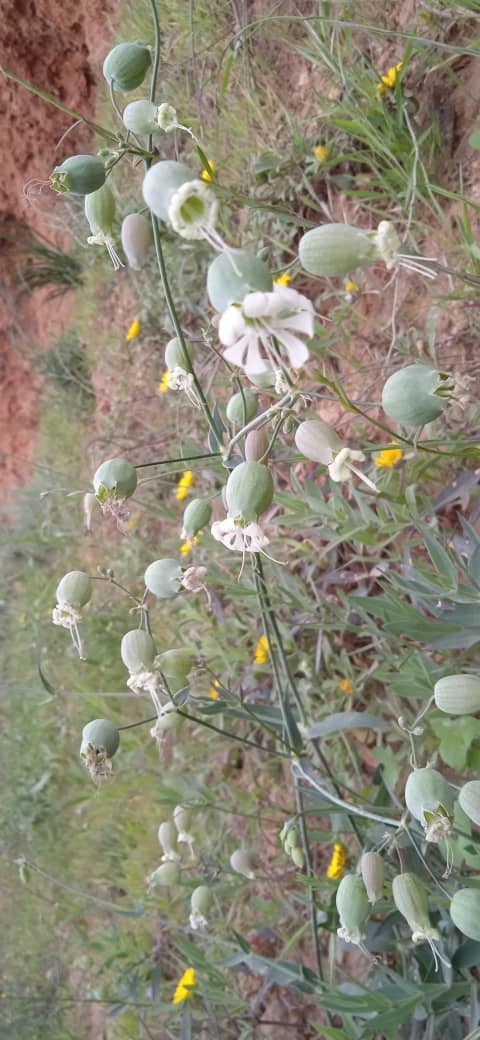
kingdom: Plantae
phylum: Tracheophyta
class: Magnoliopsida
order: Caryophyllales
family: Caryophyllaceae
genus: Silene
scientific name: Silene vulgaris
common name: Bladder campion
